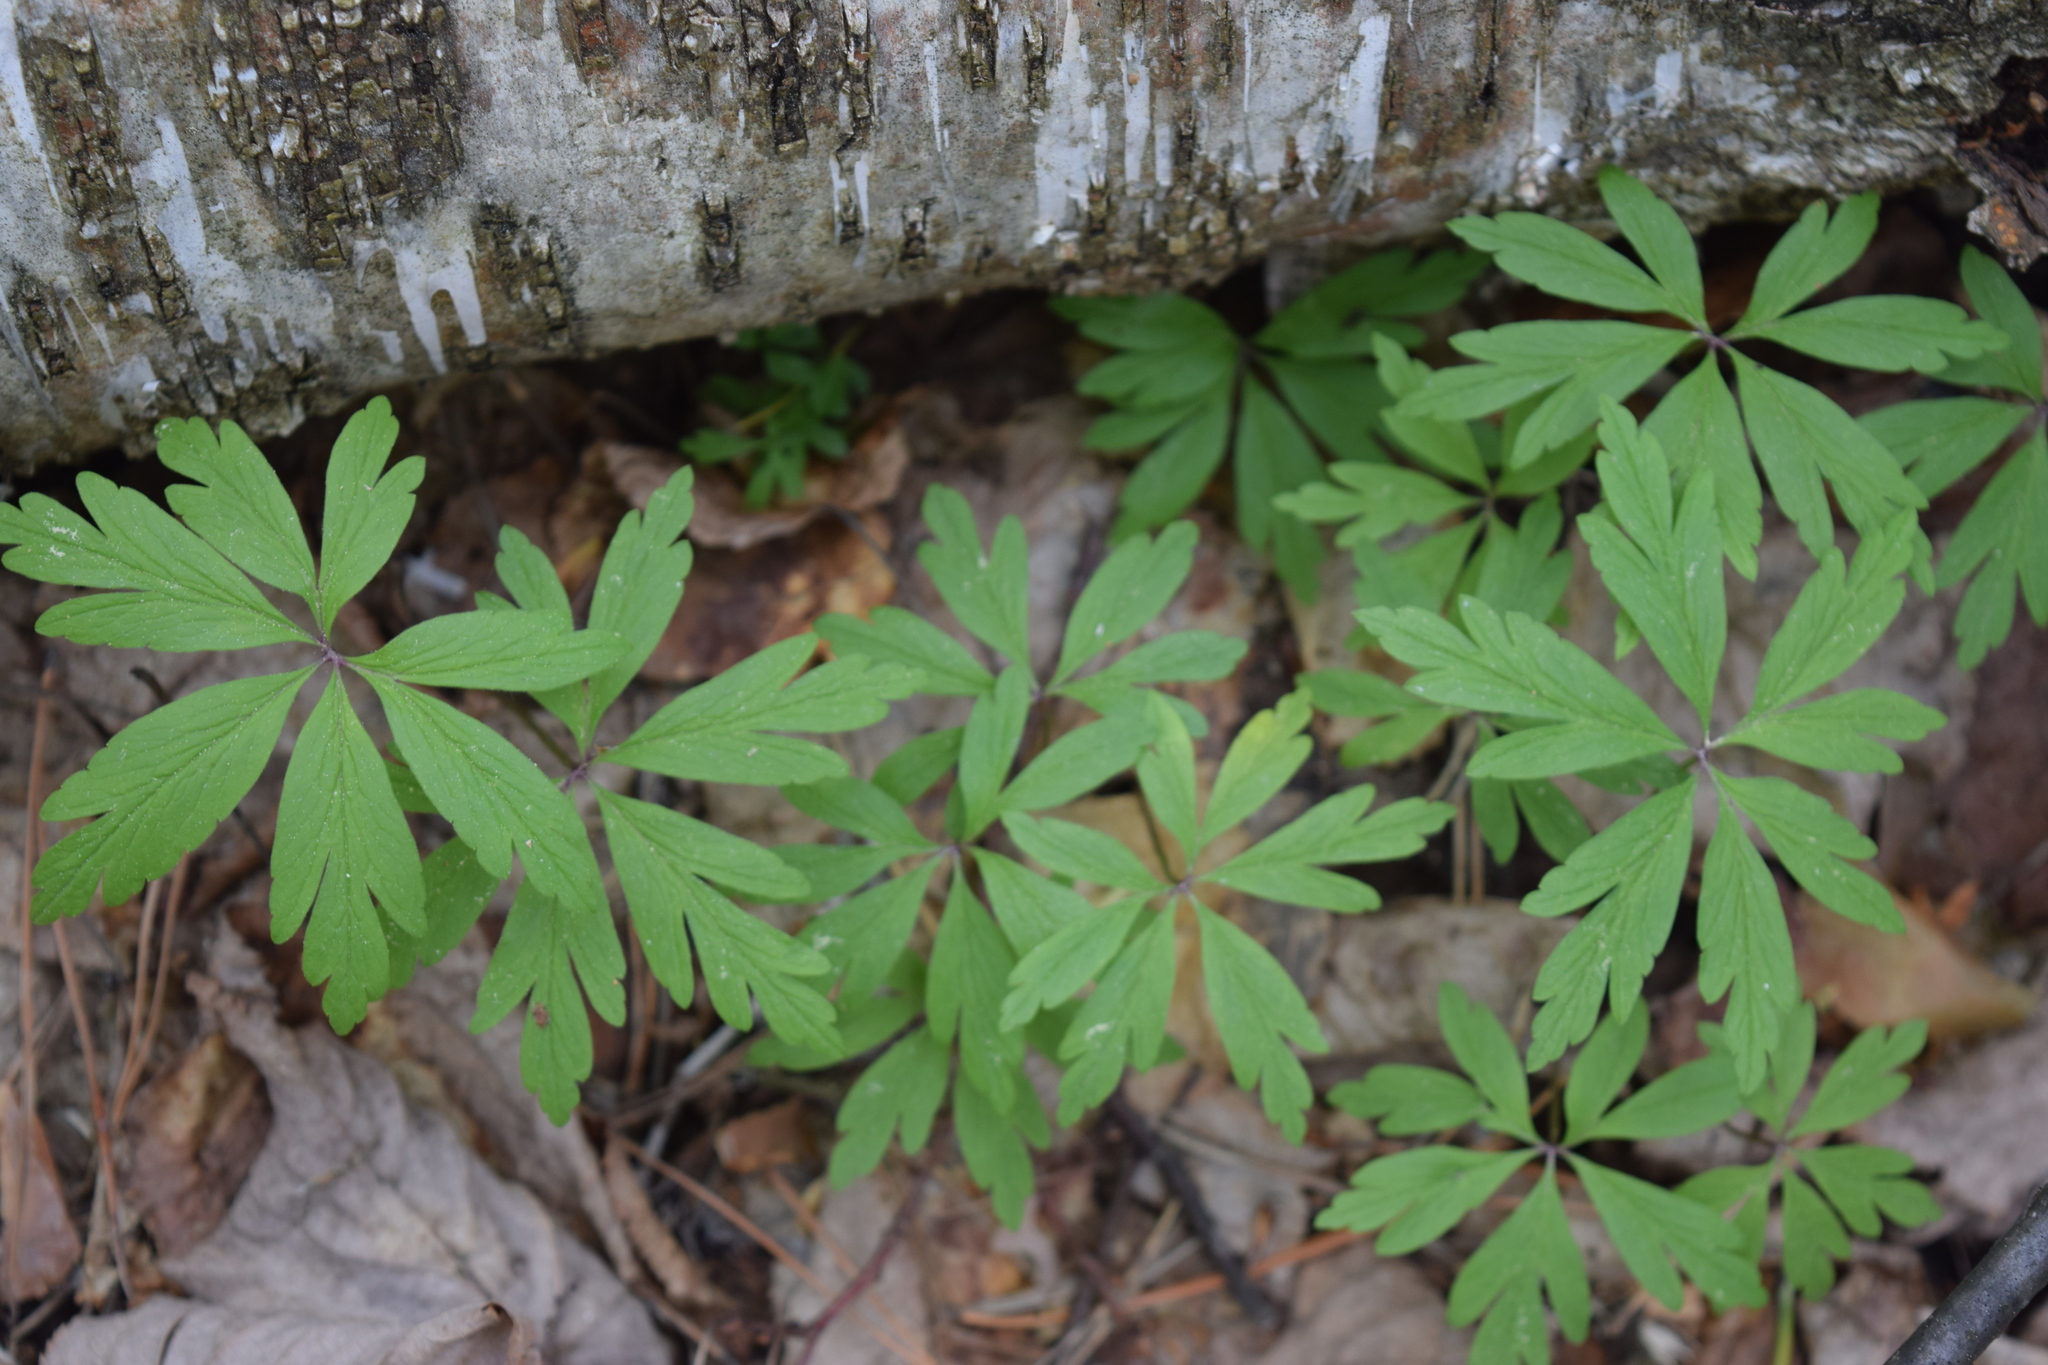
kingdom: Plantae
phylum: Tracheophyta
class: Magnoliopsida
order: Ranunculales
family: Ranunculaceae
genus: Anemone
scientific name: Anemone ranunculoides
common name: Yellow anemone
